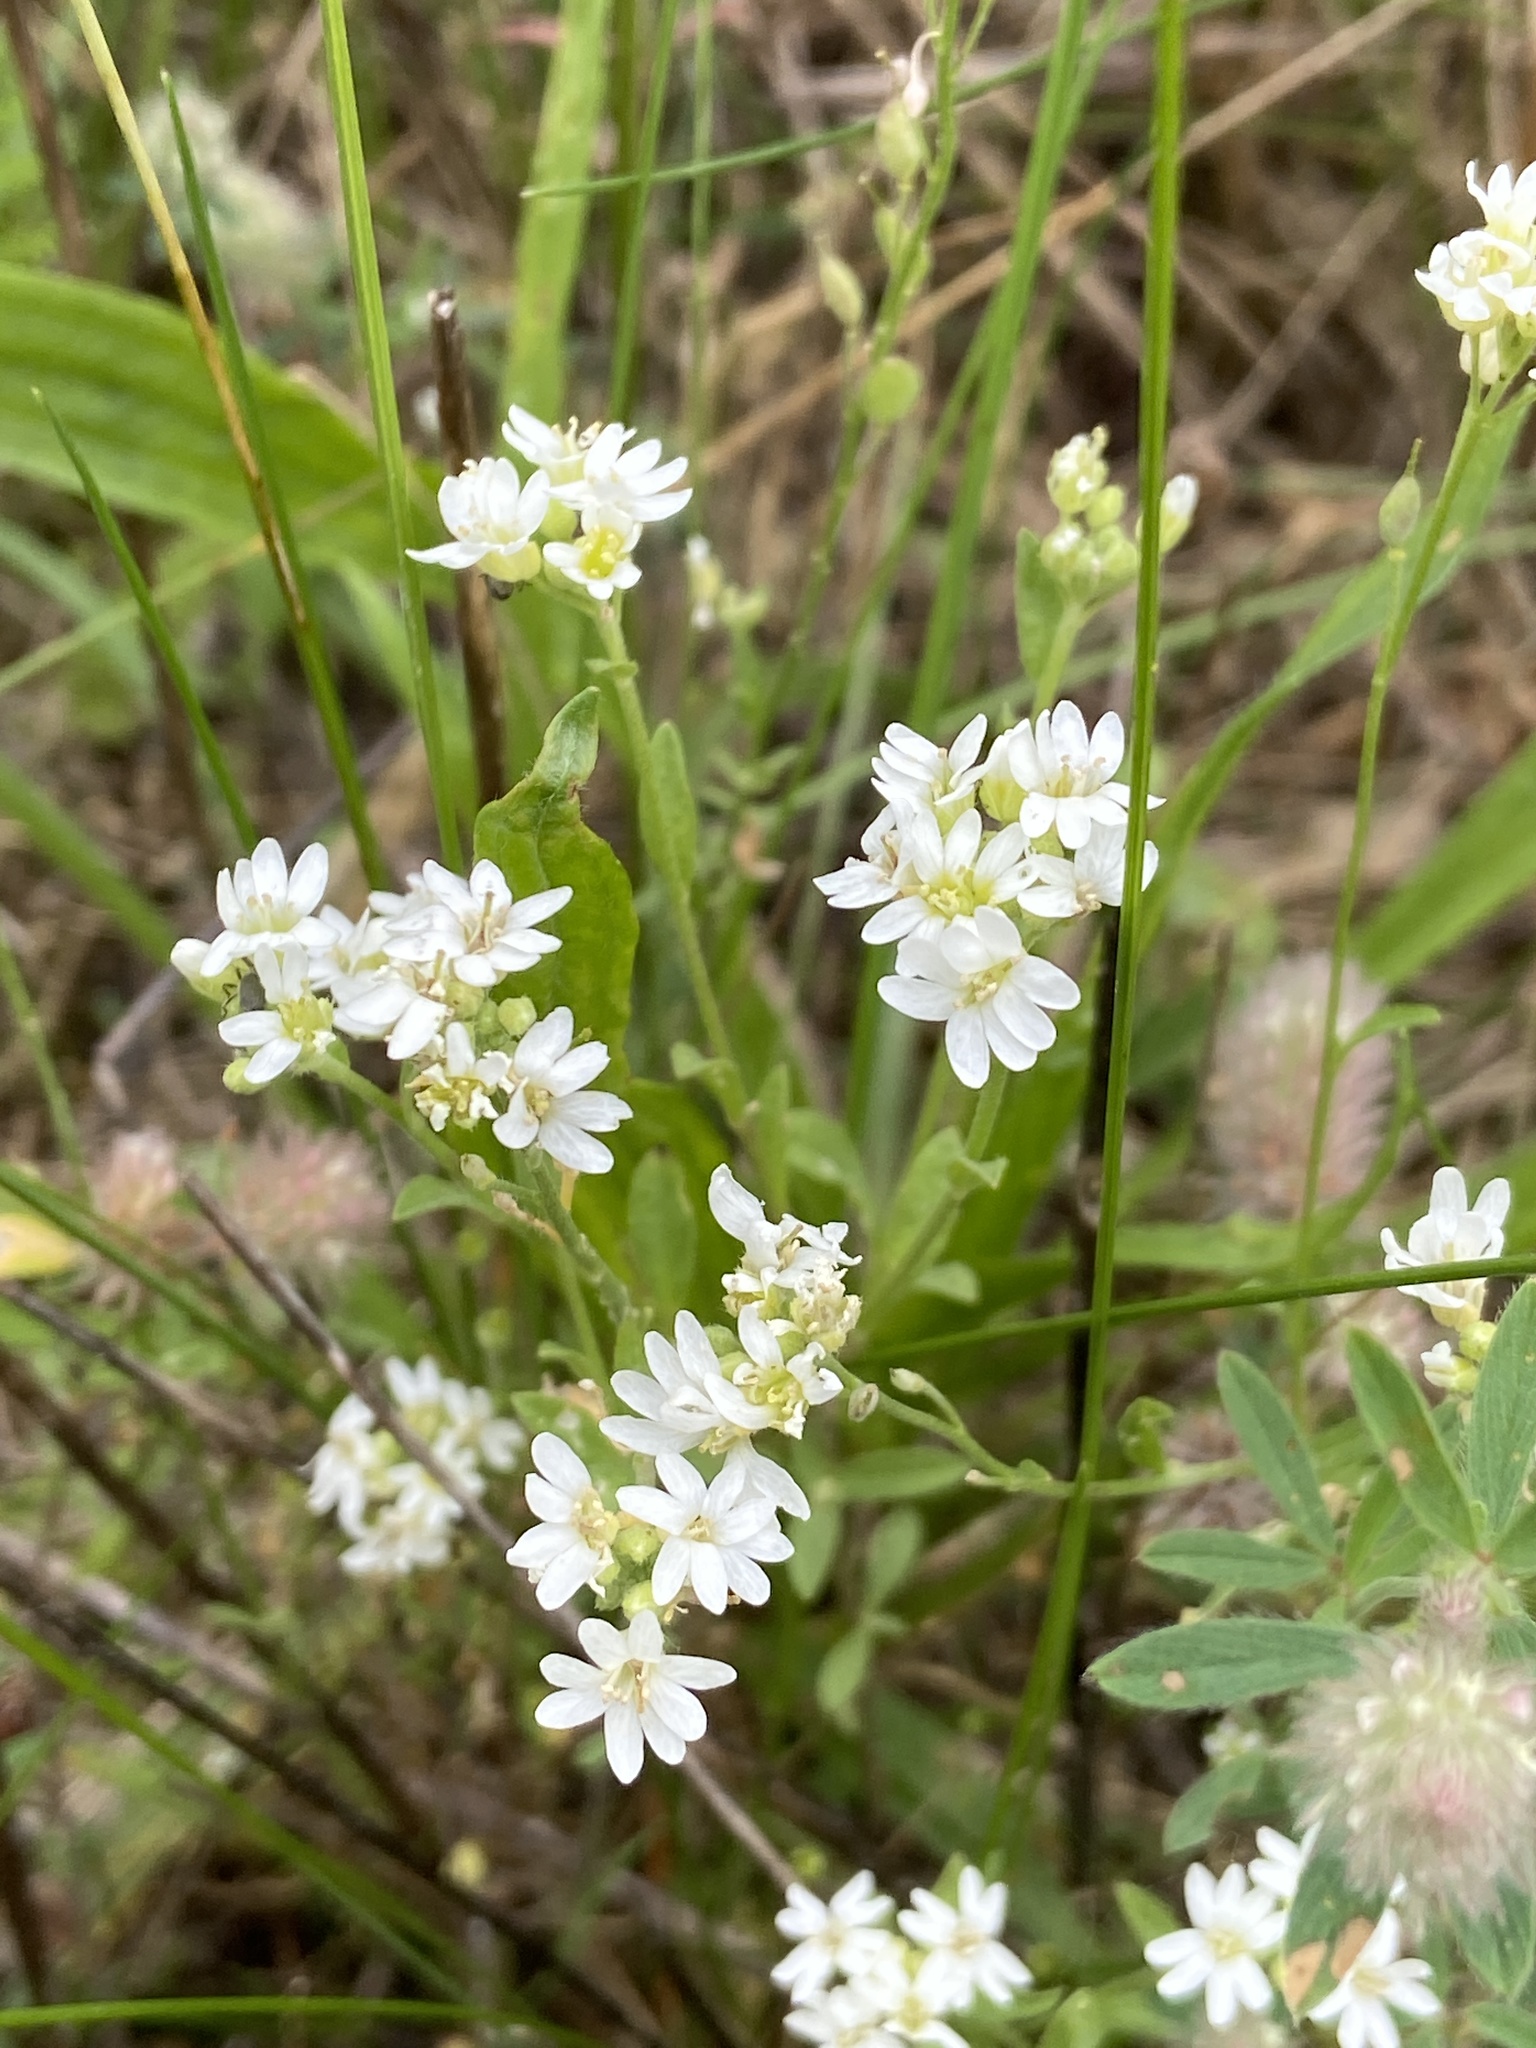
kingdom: Plantae
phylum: Tracheophyta
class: Magnoliopsida
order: Brassicales
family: Brassicaceae
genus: Berteroa
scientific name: Berteroa incana
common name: Hoary alison
